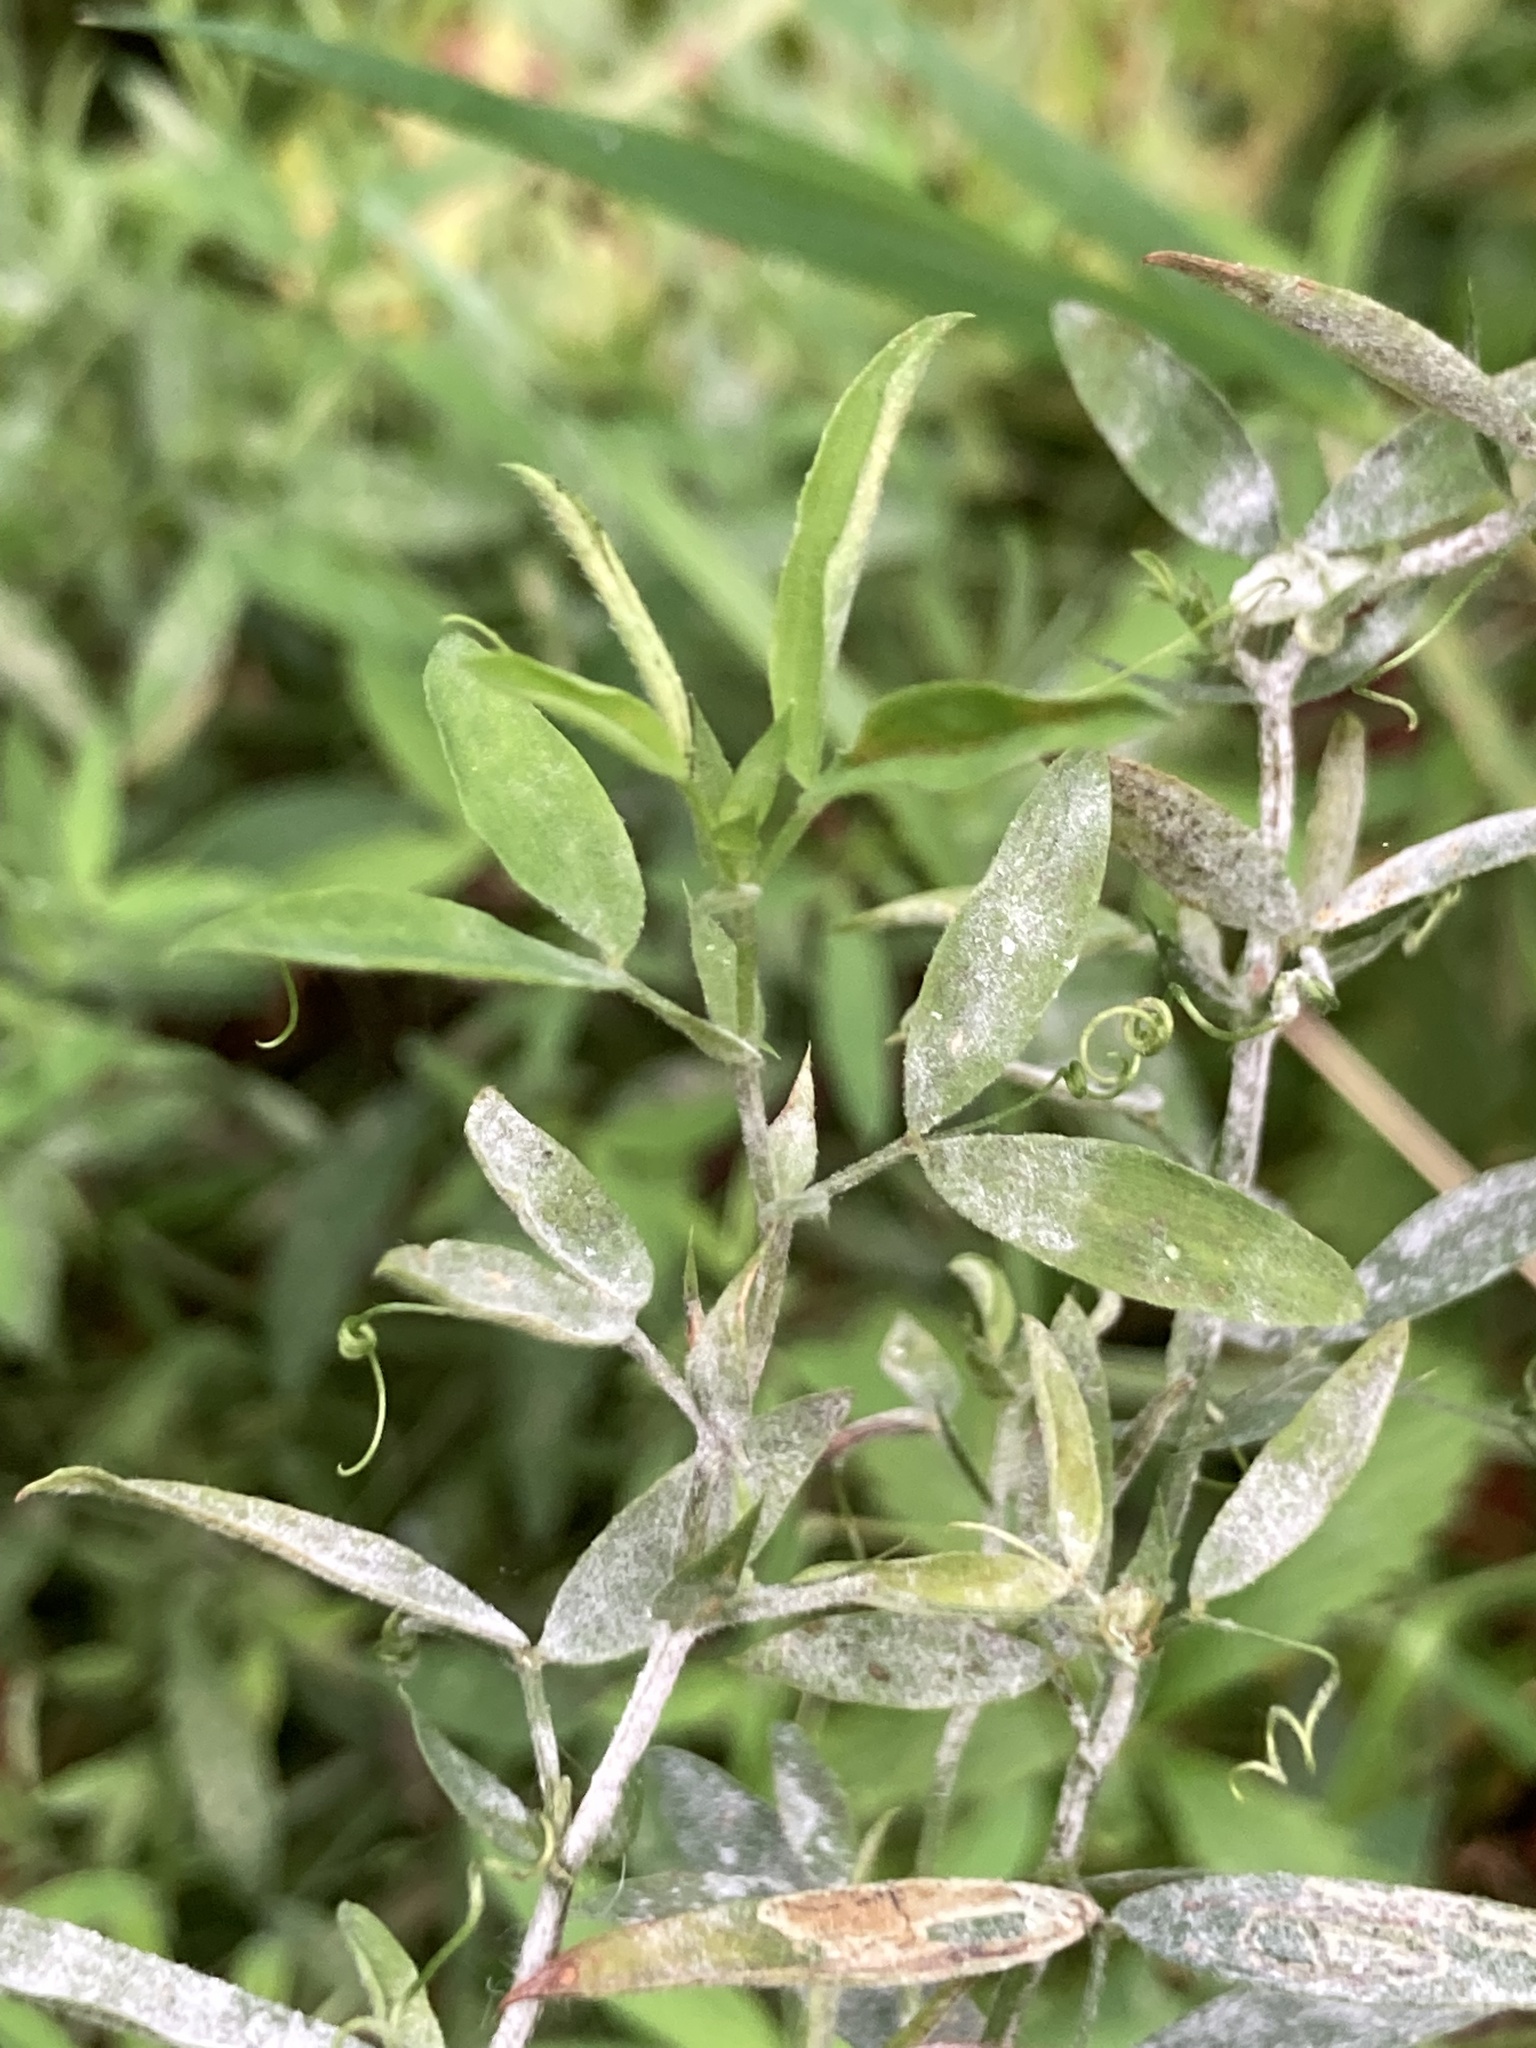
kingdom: Plantae
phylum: Tracheophyta
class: Magnoliopsida
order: Fabales
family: Fabaceae
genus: Lathyrus
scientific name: Lathyrus pratensis
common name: Meadow vetchling
